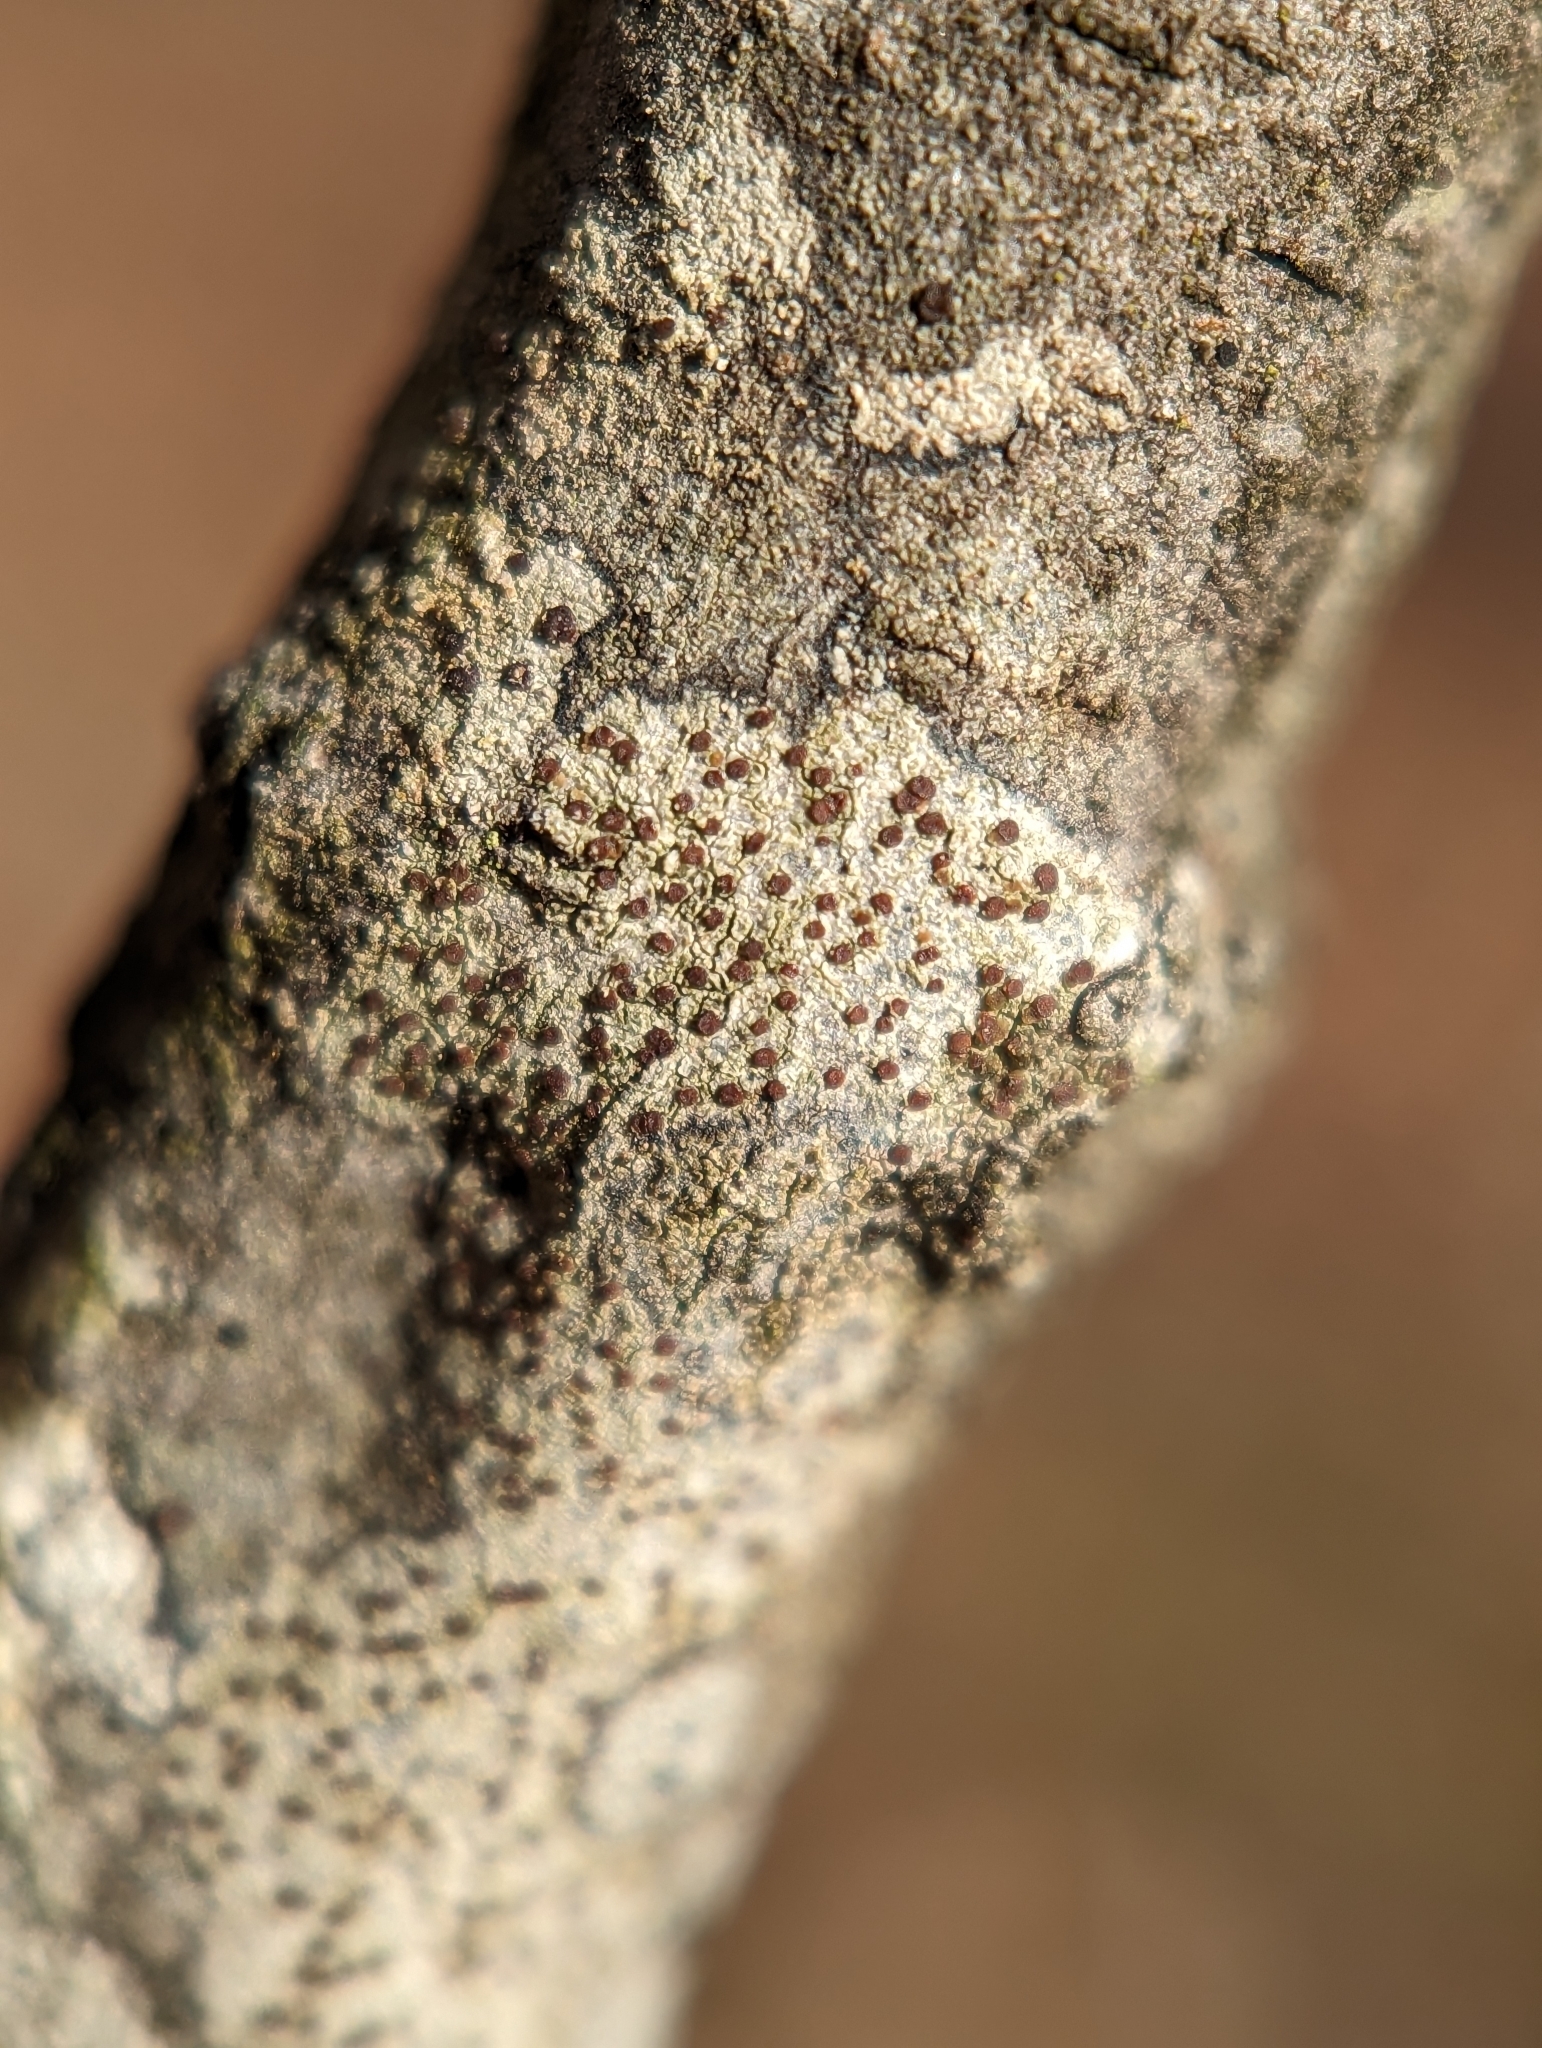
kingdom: Fungi
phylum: Ascomycota
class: Lecanoromycetes
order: Lecanorales
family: Lecanoraceae
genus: Traponora
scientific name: Traponora varians
